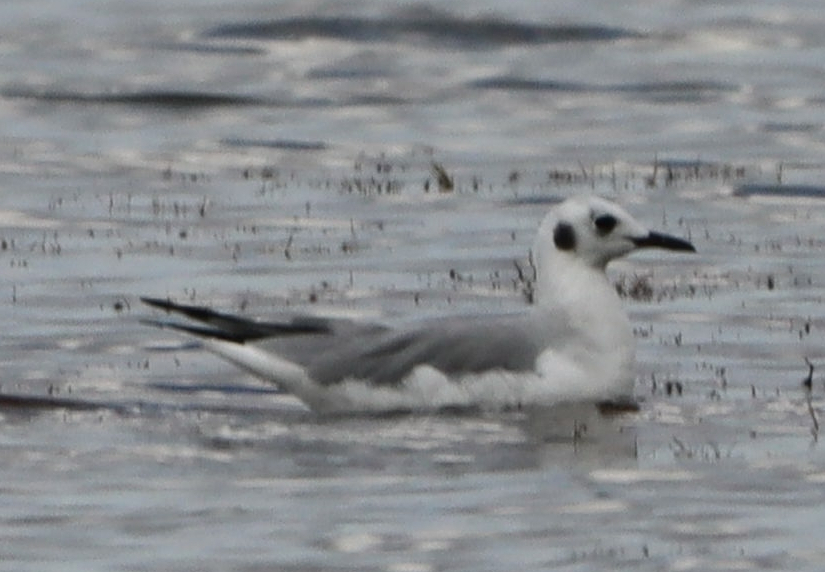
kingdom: Animalia
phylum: Chordata
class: Aves
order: Charadriiformes
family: Laridae
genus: Chroicocephalus
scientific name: Chroicocephalus philadelphia
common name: Bonaparte's gull
